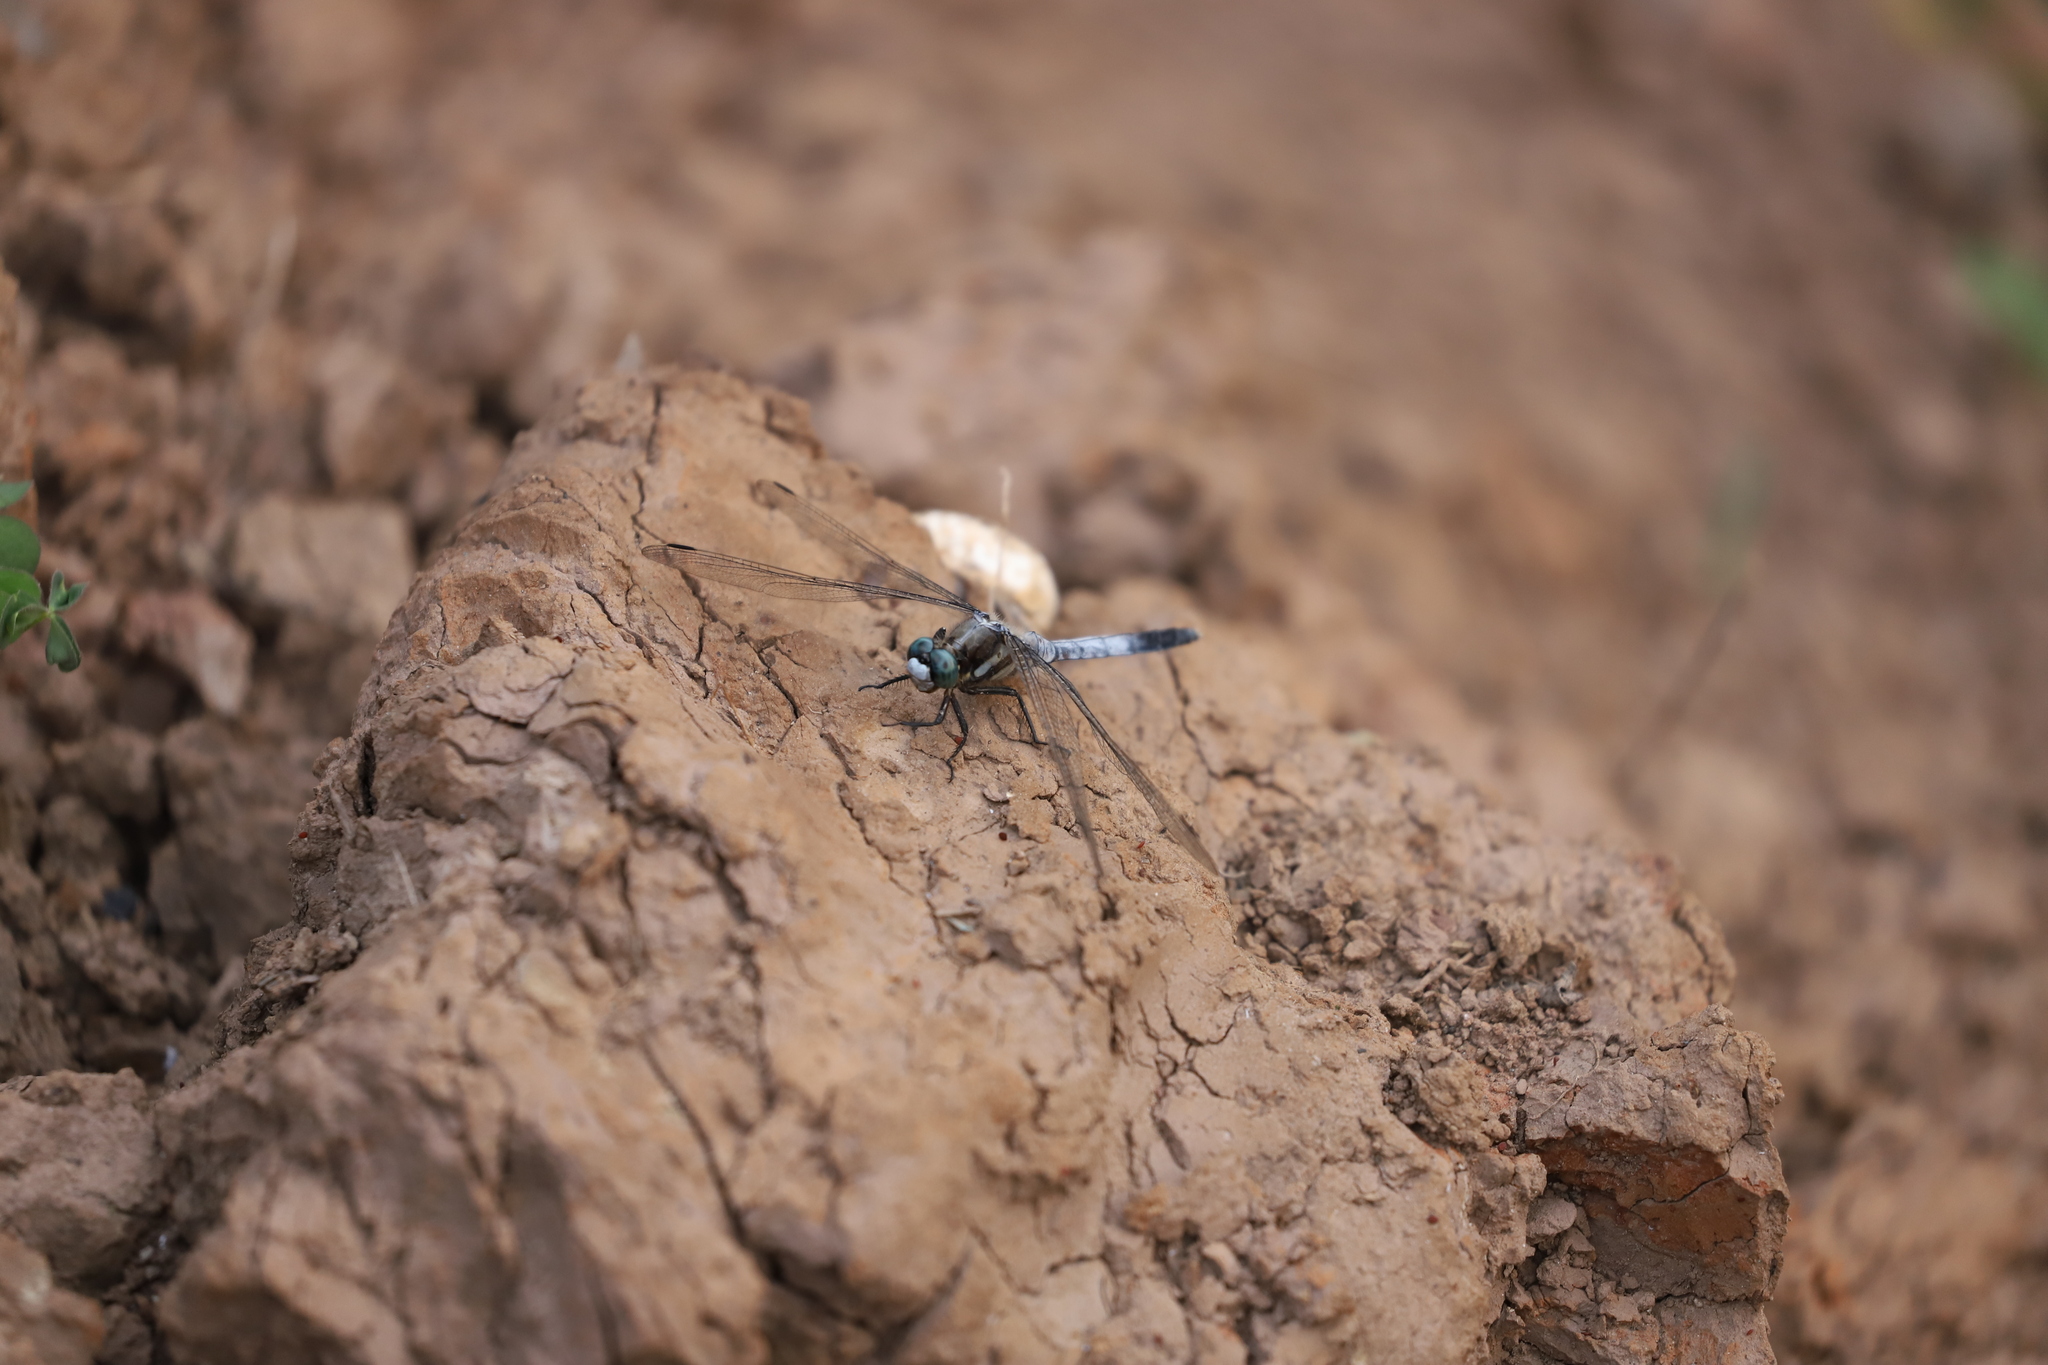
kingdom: Animalia
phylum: Arthropoda
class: Insecta
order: Odonata
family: Libellulidae
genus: Orthetrum
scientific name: Orthetrum albistylum
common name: White-tailed skimmer
